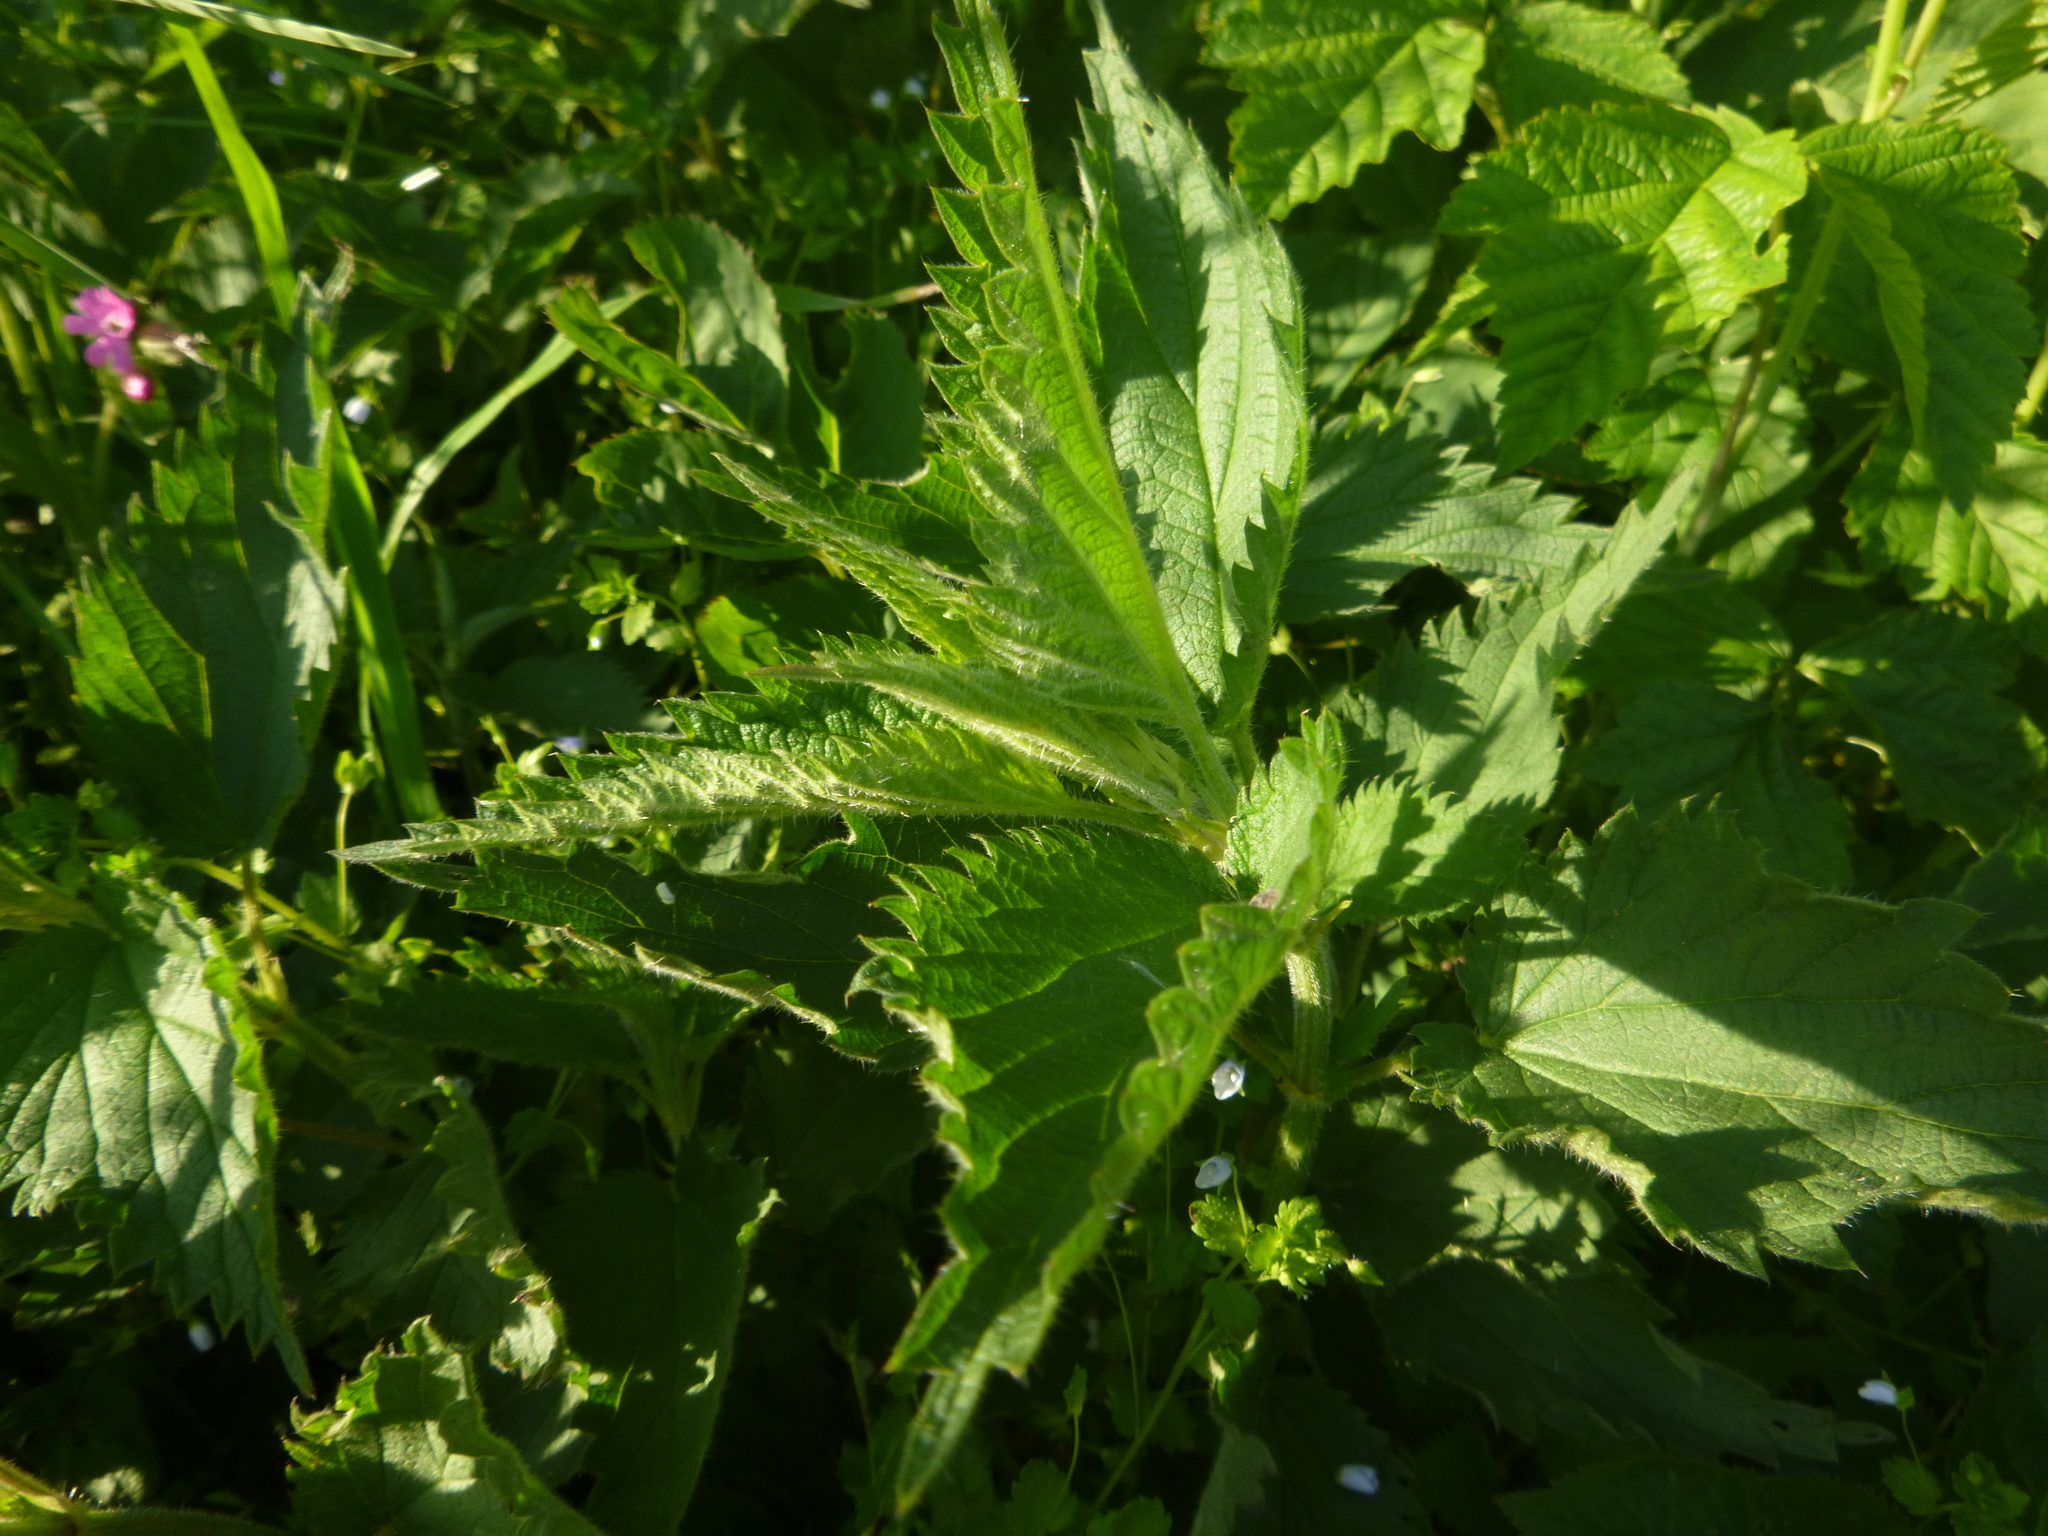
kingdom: Plantae
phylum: Tracheophyta
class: Magnoliopsida
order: Rosales
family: Urticaceae
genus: Urtica
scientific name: Urtica dioica
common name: Common nettle
